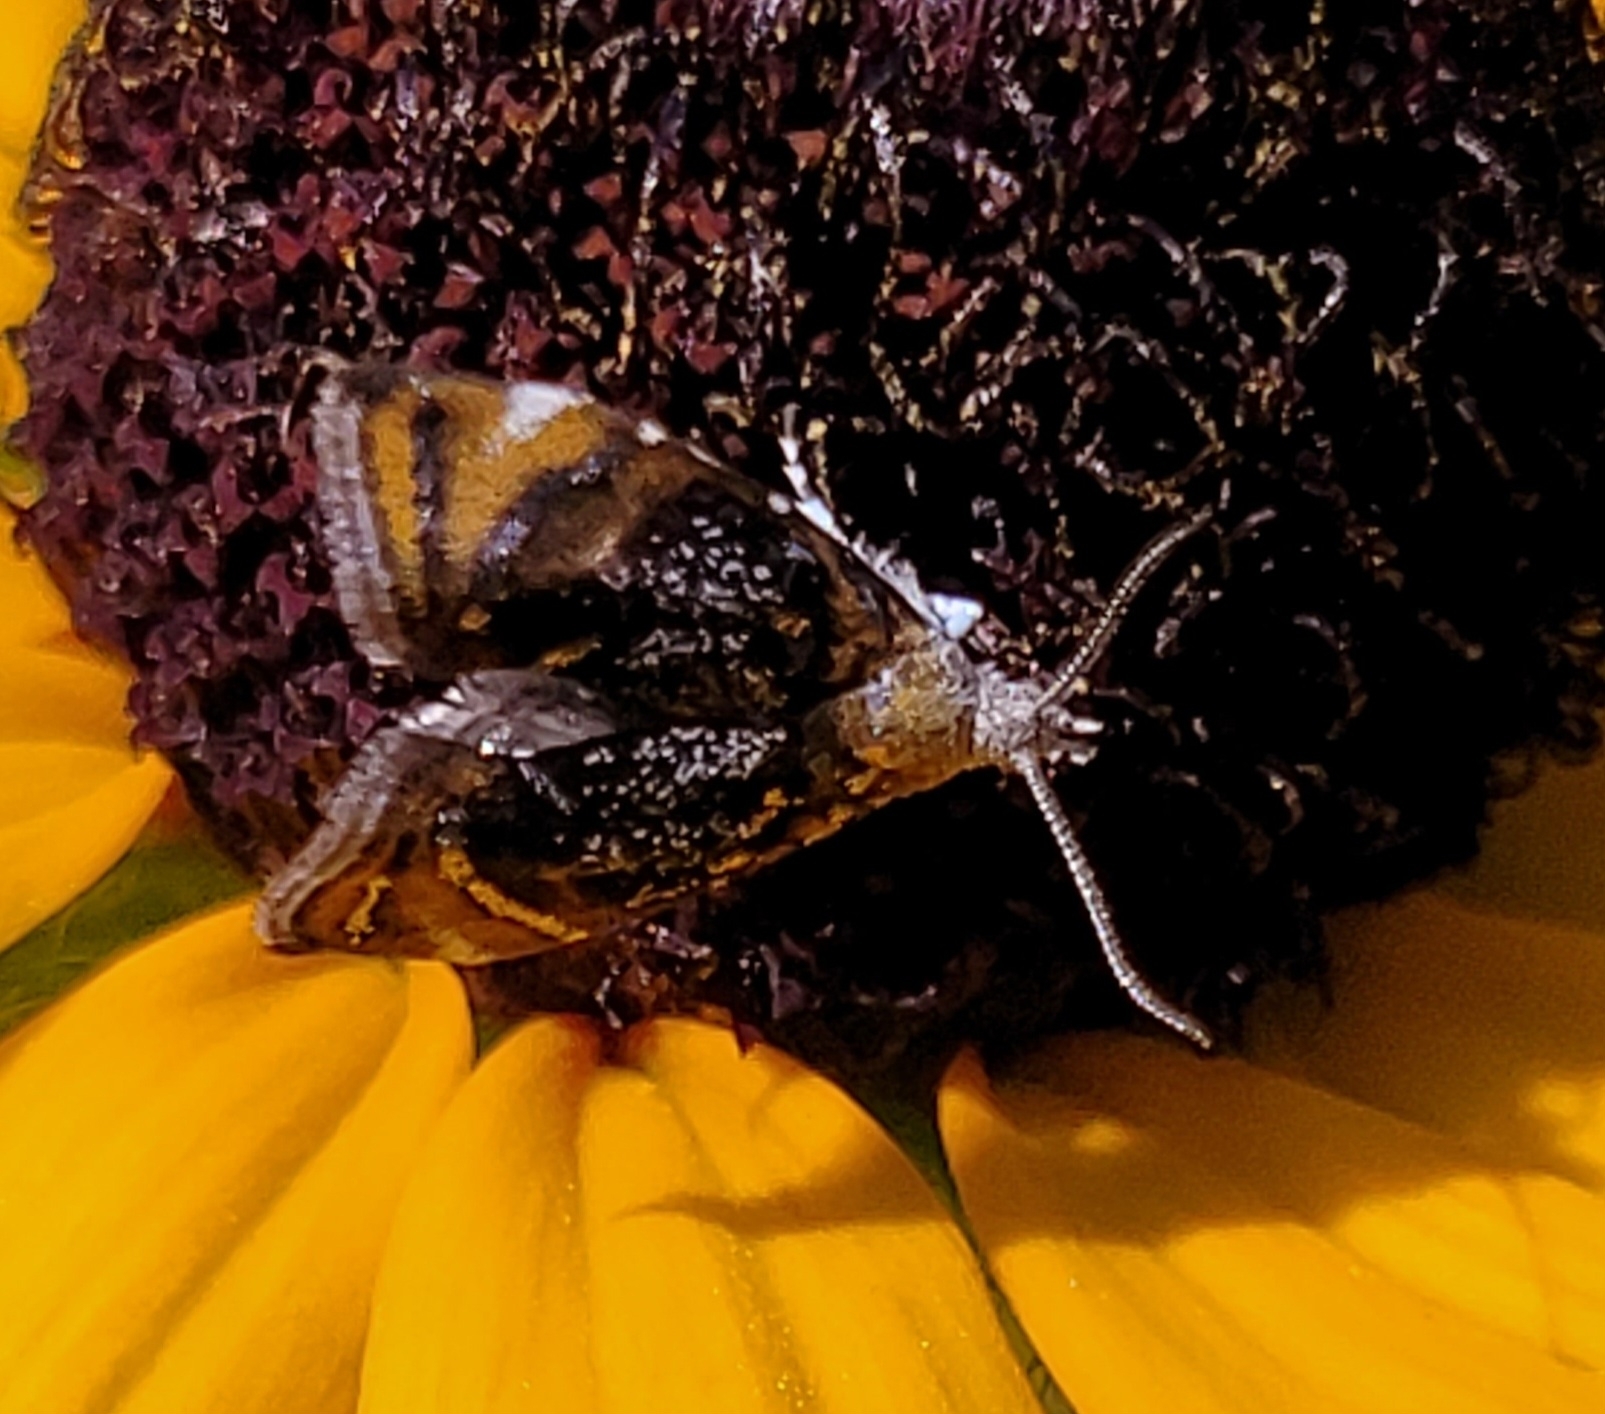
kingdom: Animalia
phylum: Arthropoda
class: Insecta
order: Lepidoptera
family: Choreutidae
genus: Prochoreutis
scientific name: Prochoreutis inflatella
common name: Skullcap skeletonizer moth
